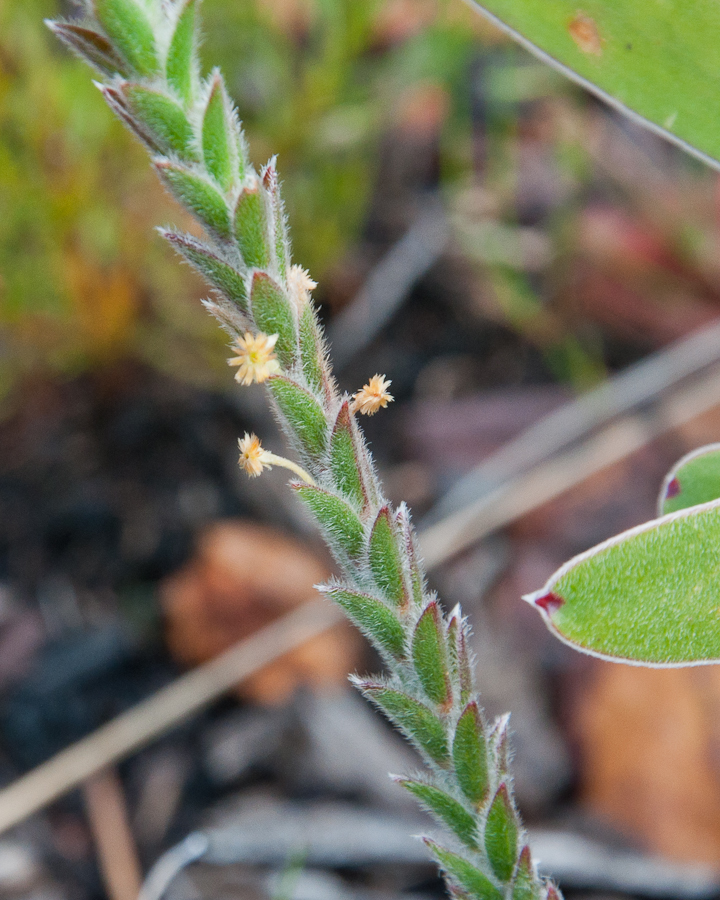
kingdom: Plantae
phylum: Tracheophyta
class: Magnoliopsida
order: Malvales
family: Thymelaeaceae
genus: Struthiola
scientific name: Struthiola tomentosa
